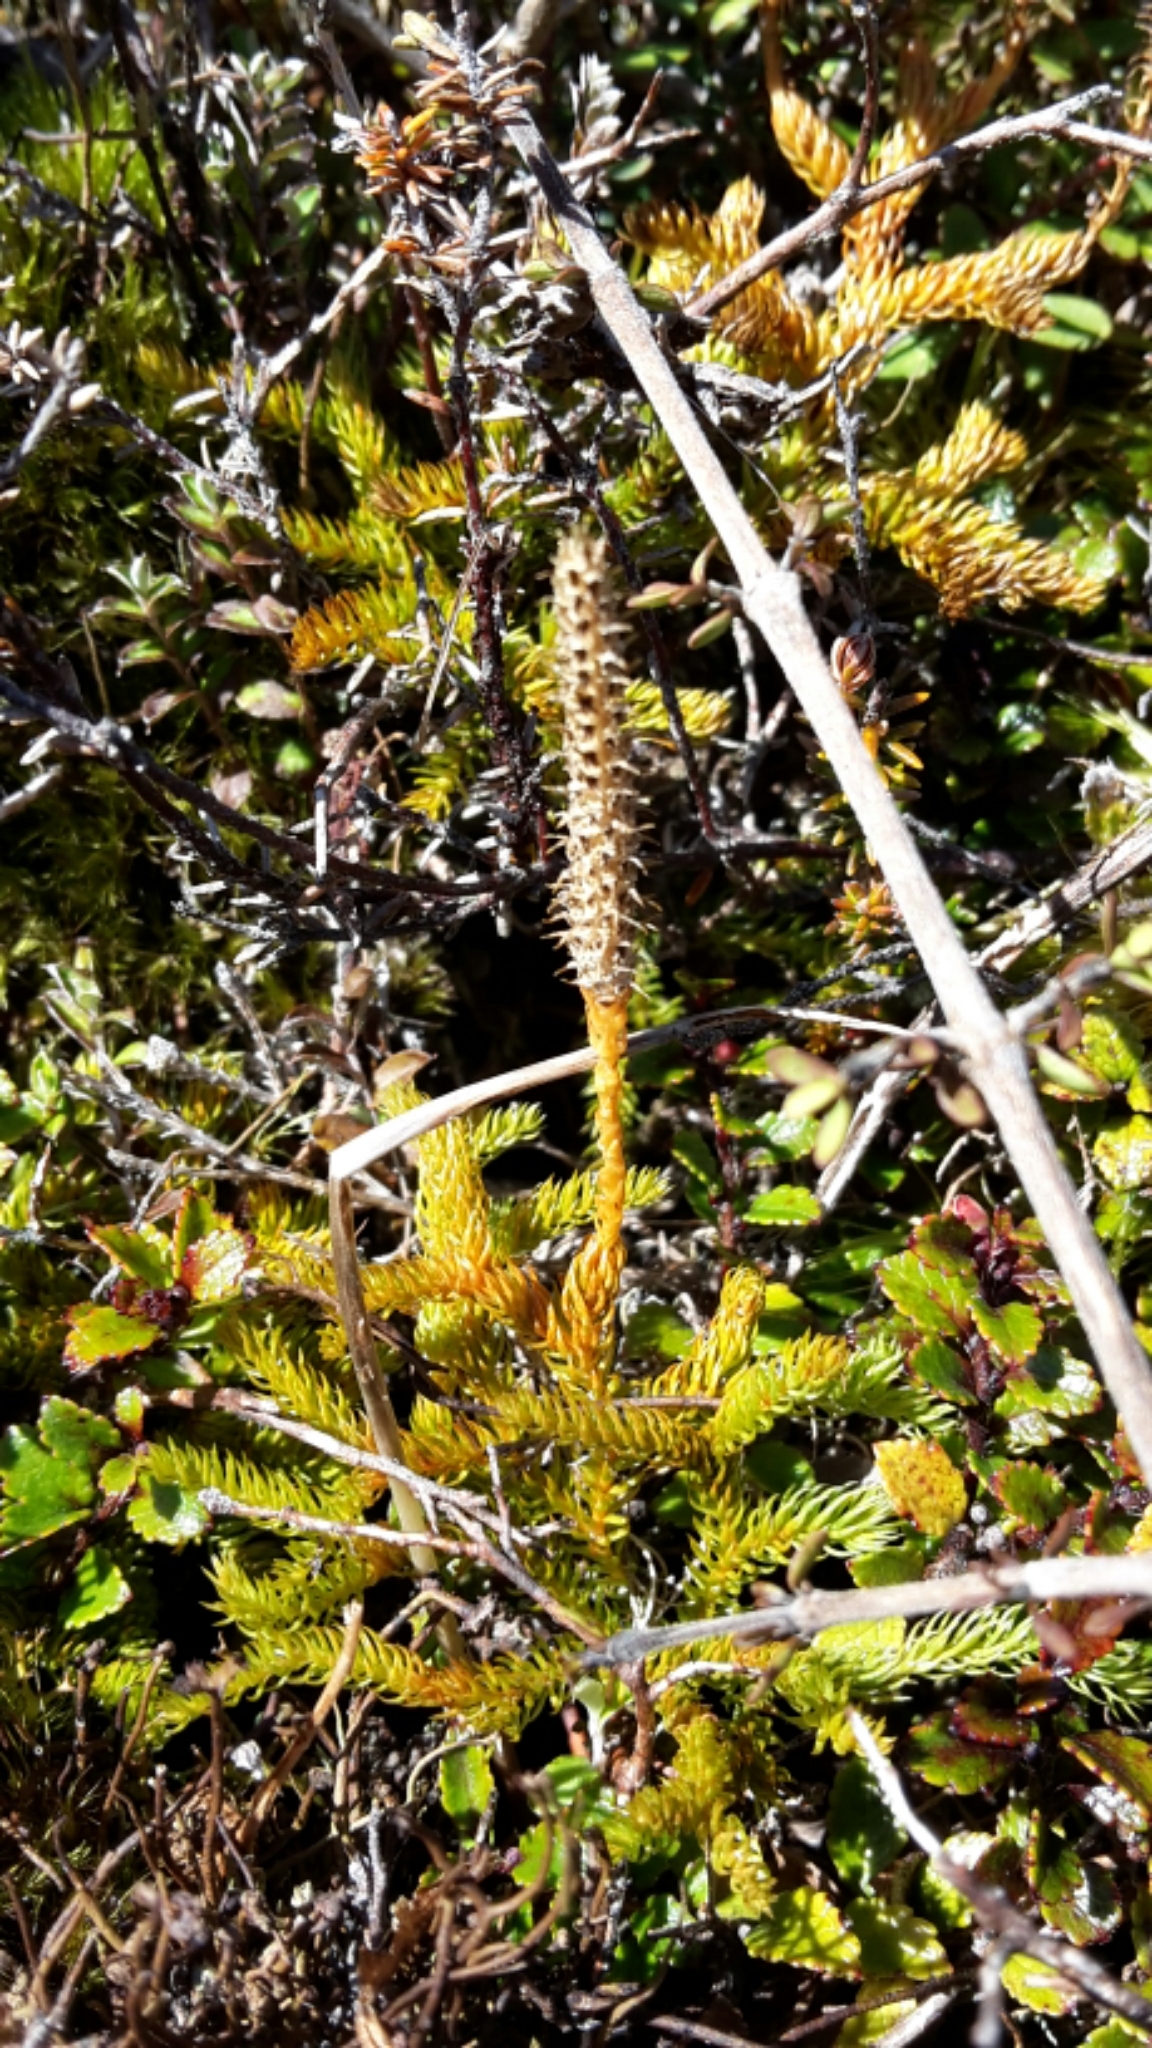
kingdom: Plantae
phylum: Tracheophyta
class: Lycopodiopsida
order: Lycopodiales
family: Lycopodiaceae
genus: Austrolycopodium
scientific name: Austrolycopodium fastigiatum
